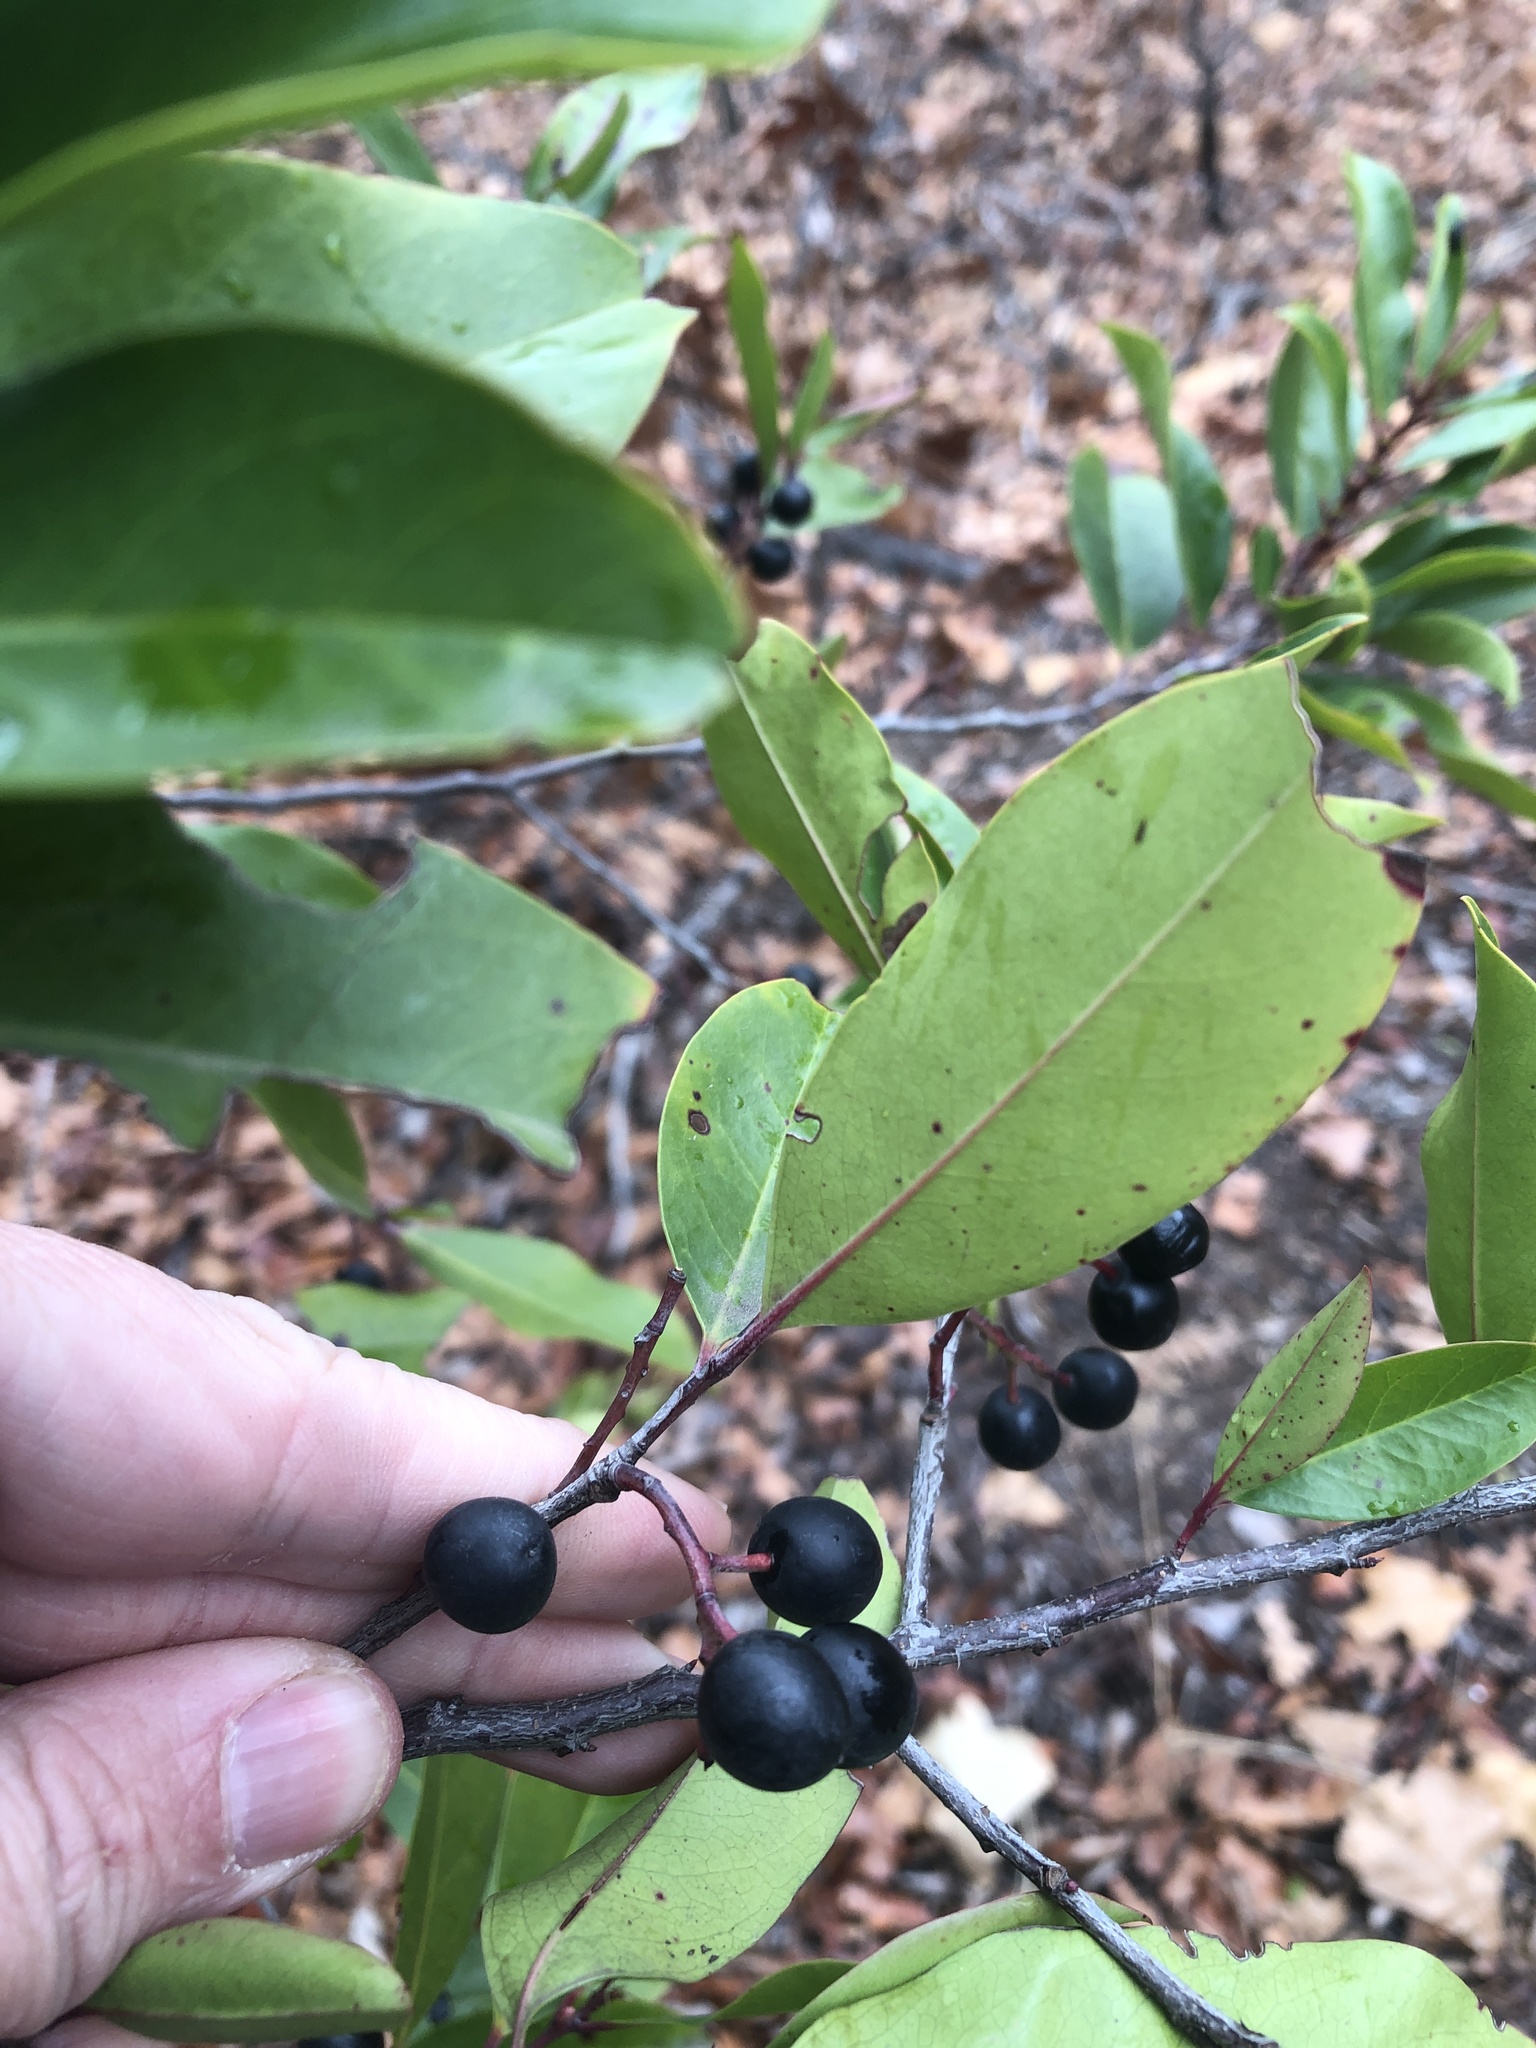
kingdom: Plantae
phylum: Tracheophyta
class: Magnoliopsida
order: Rosales
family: Rosaceae
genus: Prunus
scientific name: Prunus caroliniana
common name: Carolina laurel cherry
